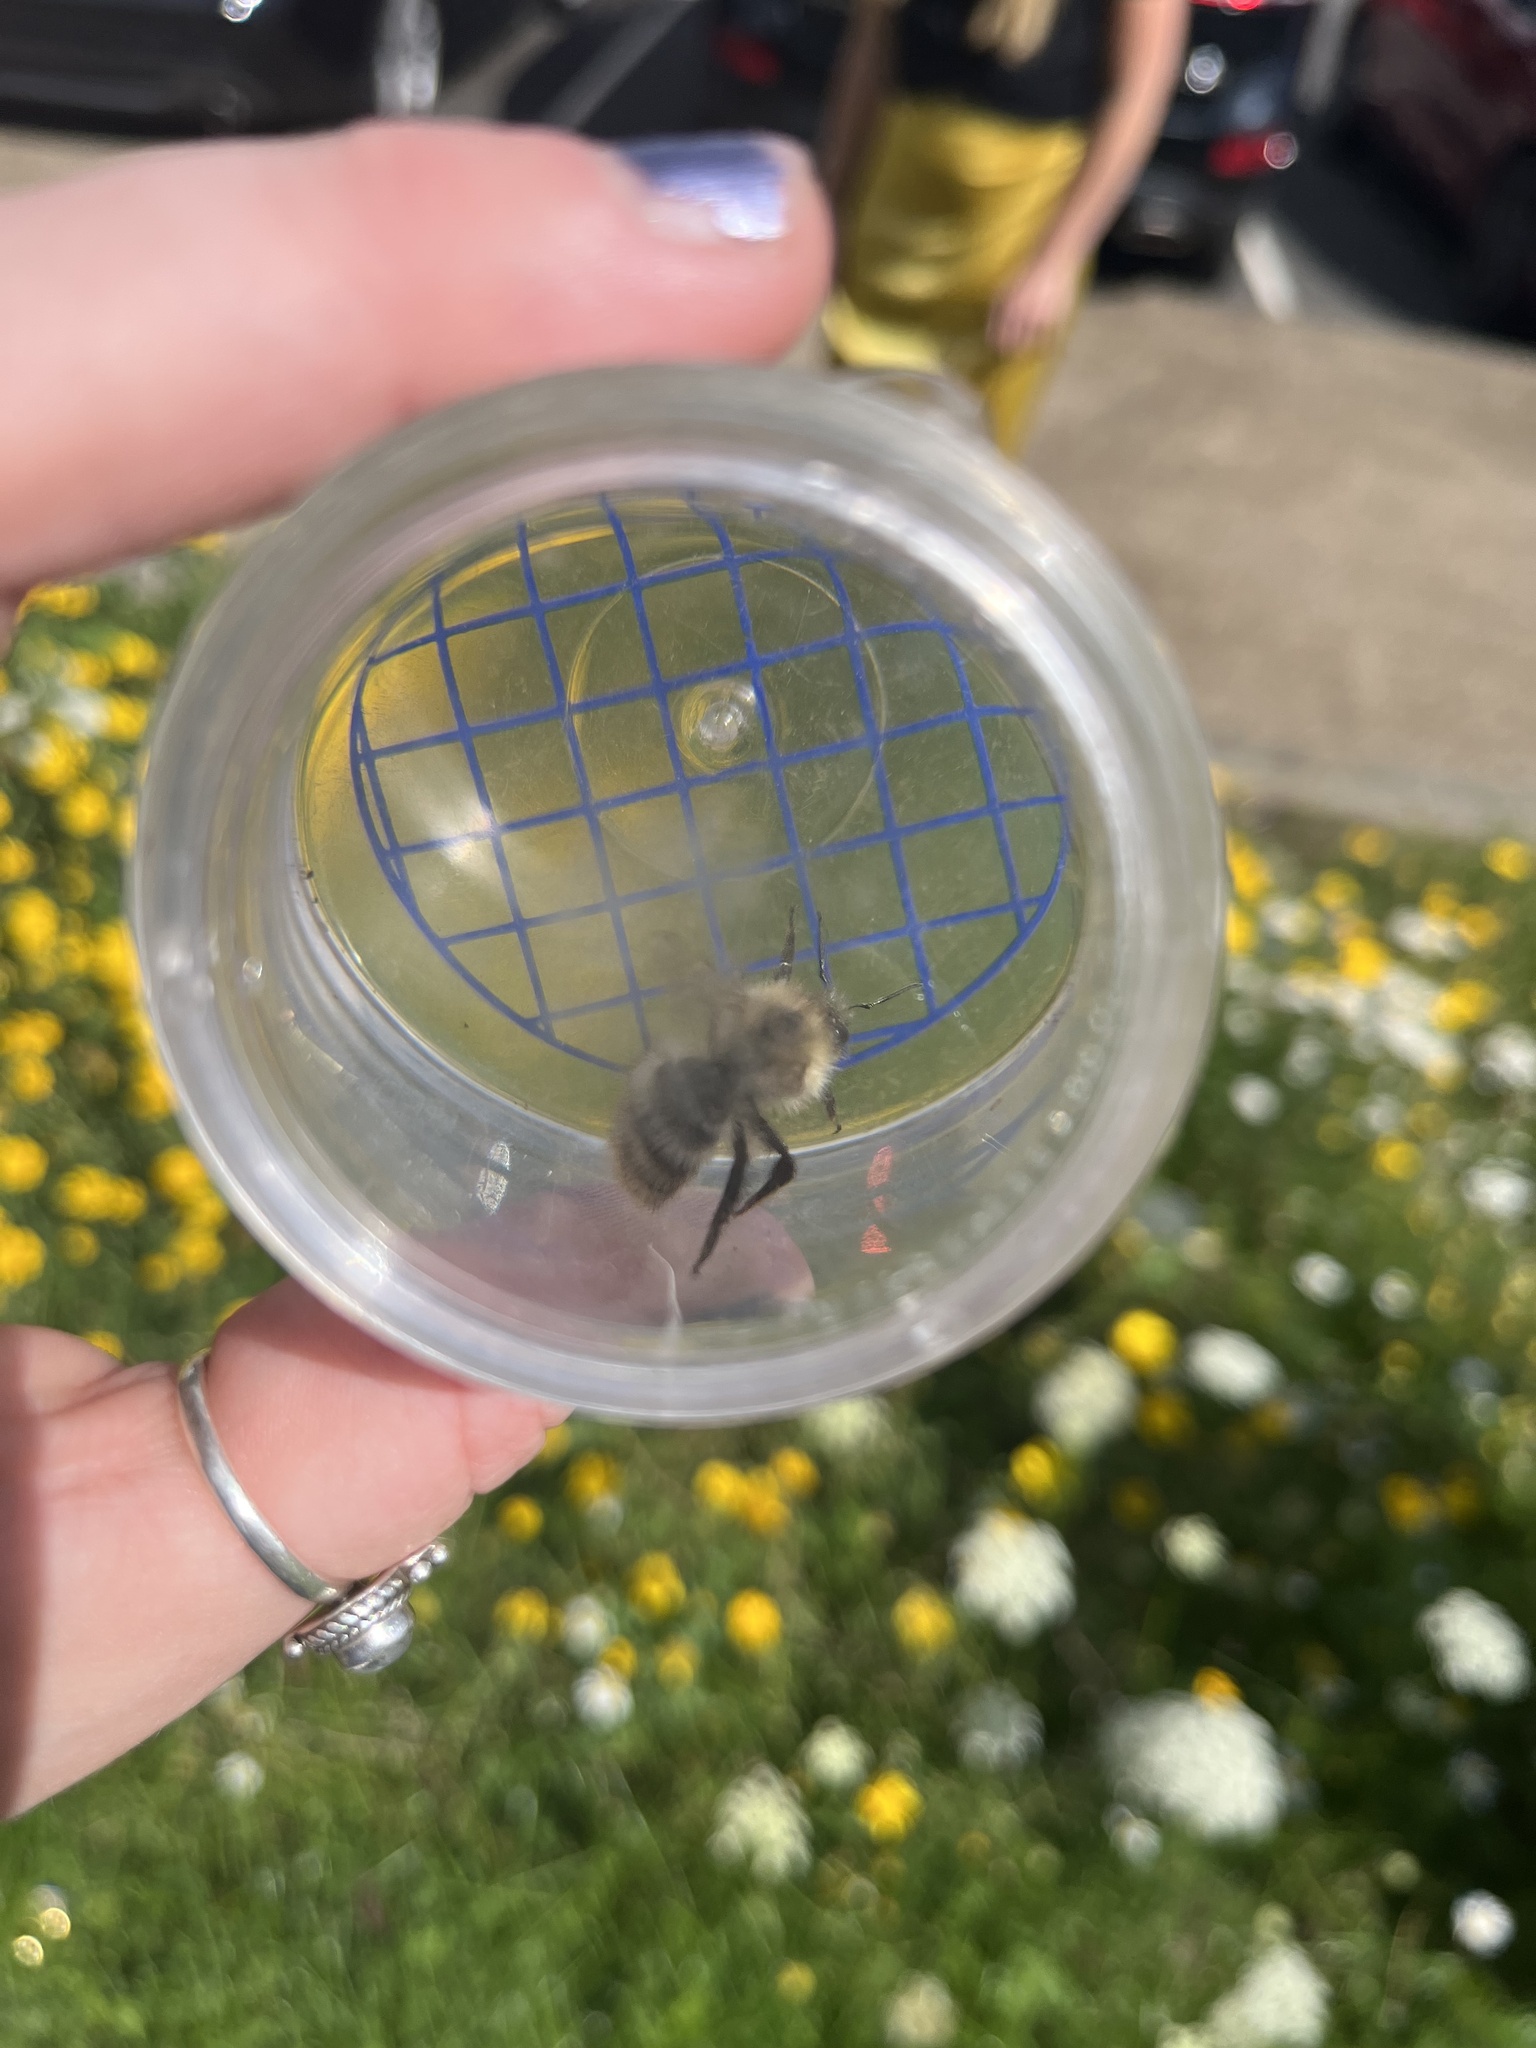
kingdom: Animalia
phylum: Arthropoda
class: Insecta
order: Hymenoptera
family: Apidae
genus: Bombus
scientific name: Bombus pascuorum
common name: Common carder bee
